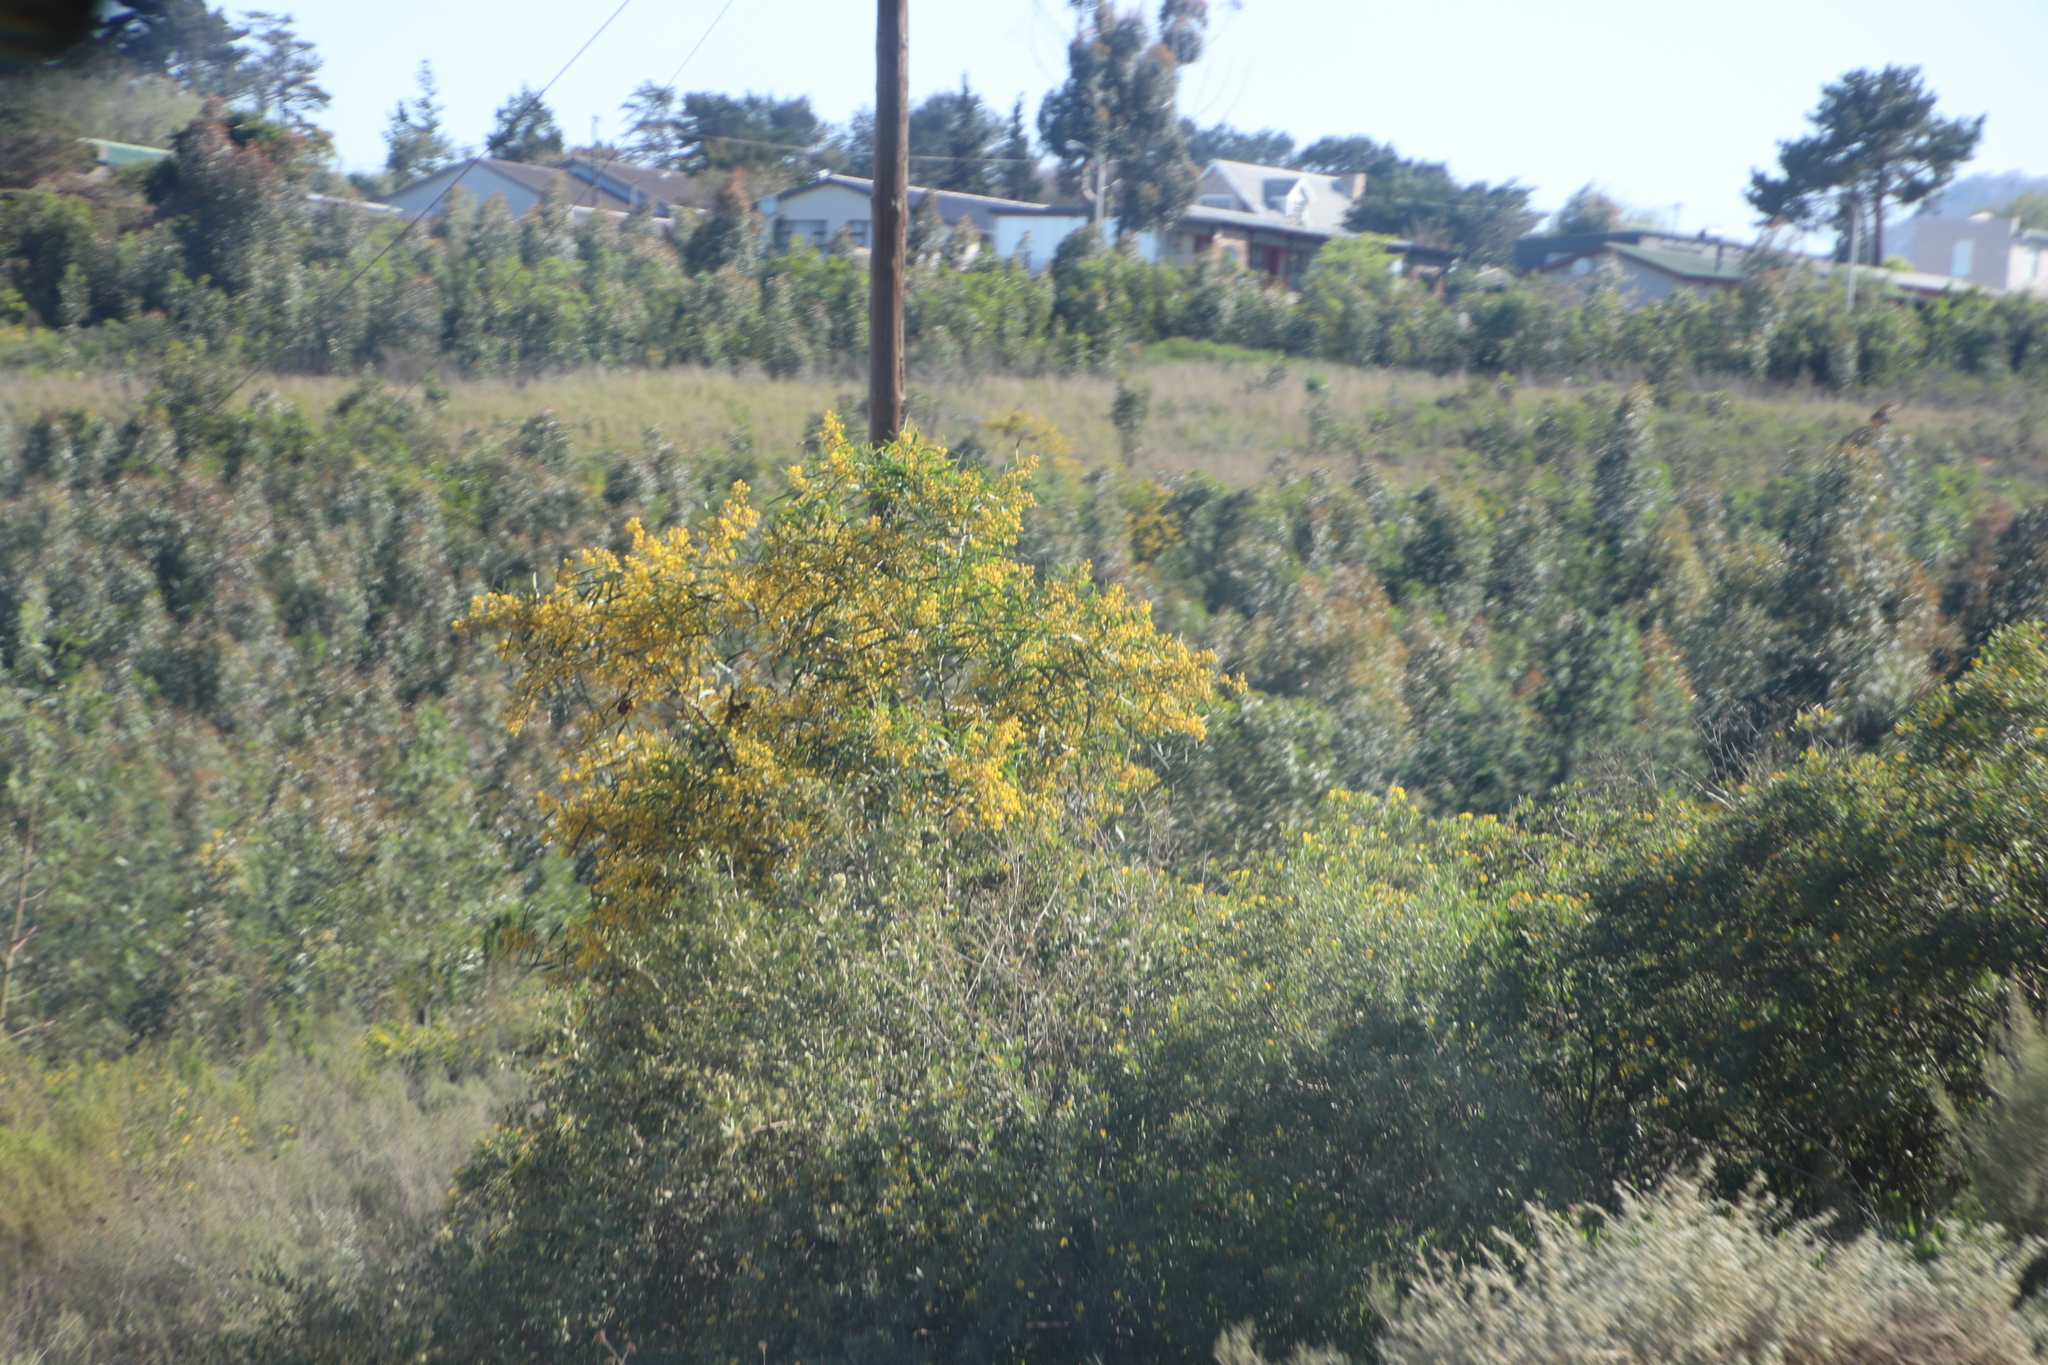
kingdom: Plantae
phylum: Tracheophyta
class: Magnoliopsida
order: Fabales
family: Fabaceae
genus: Acacia
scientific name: Acacia saligna
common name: Orange wattle
